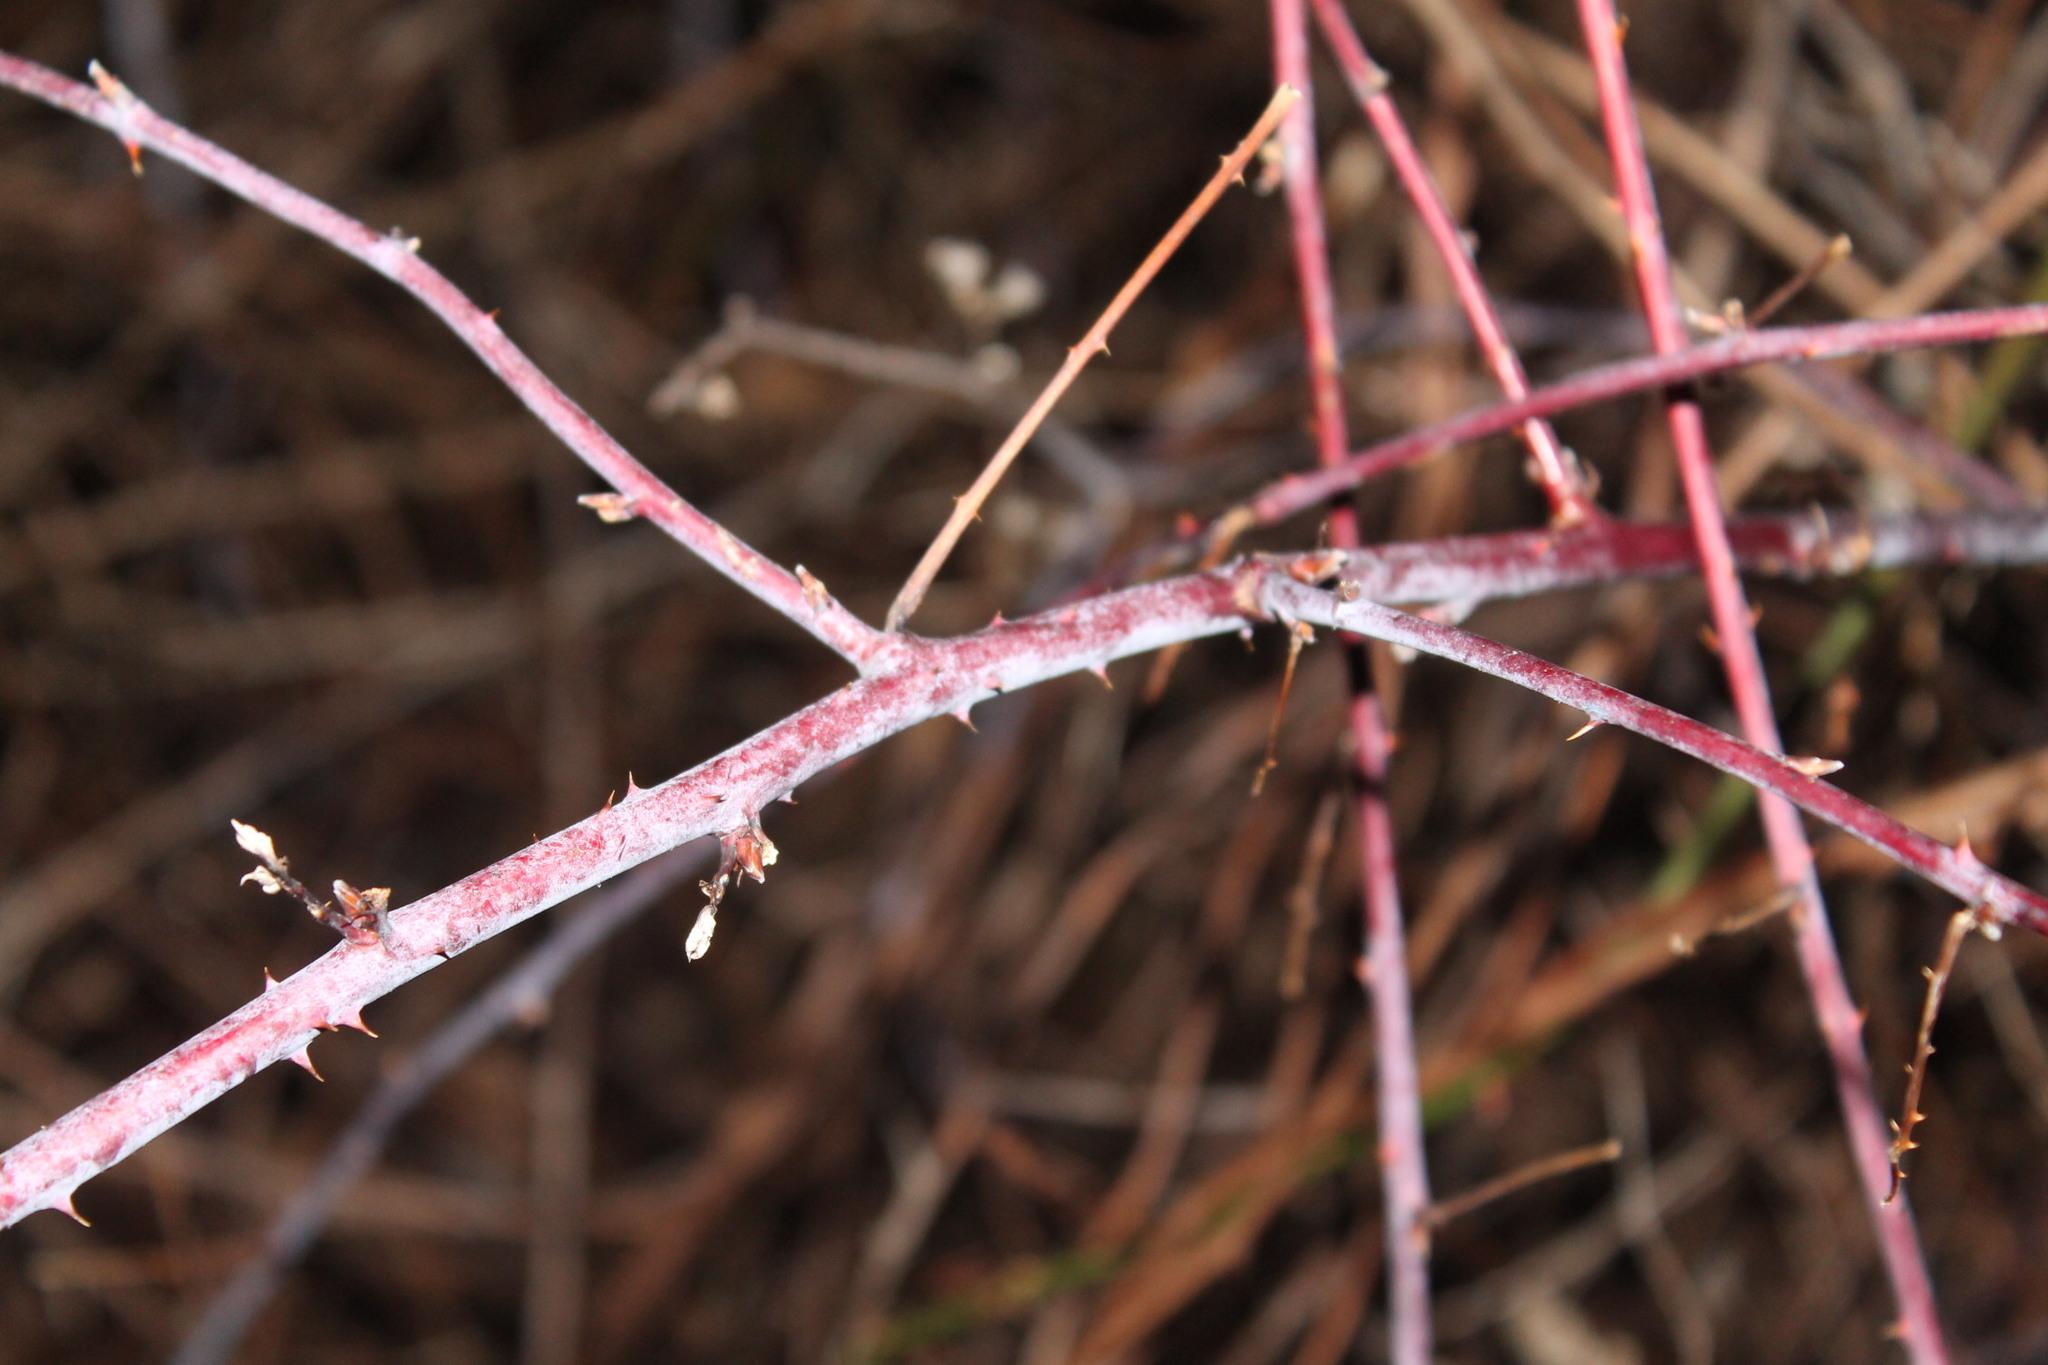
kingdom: Plantae
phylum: Tracheophyta
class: Magnoliopsida
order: Rosales
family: Rosaceae
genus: Rubus
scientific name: Rubus occidentalis
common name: Black raspberry
